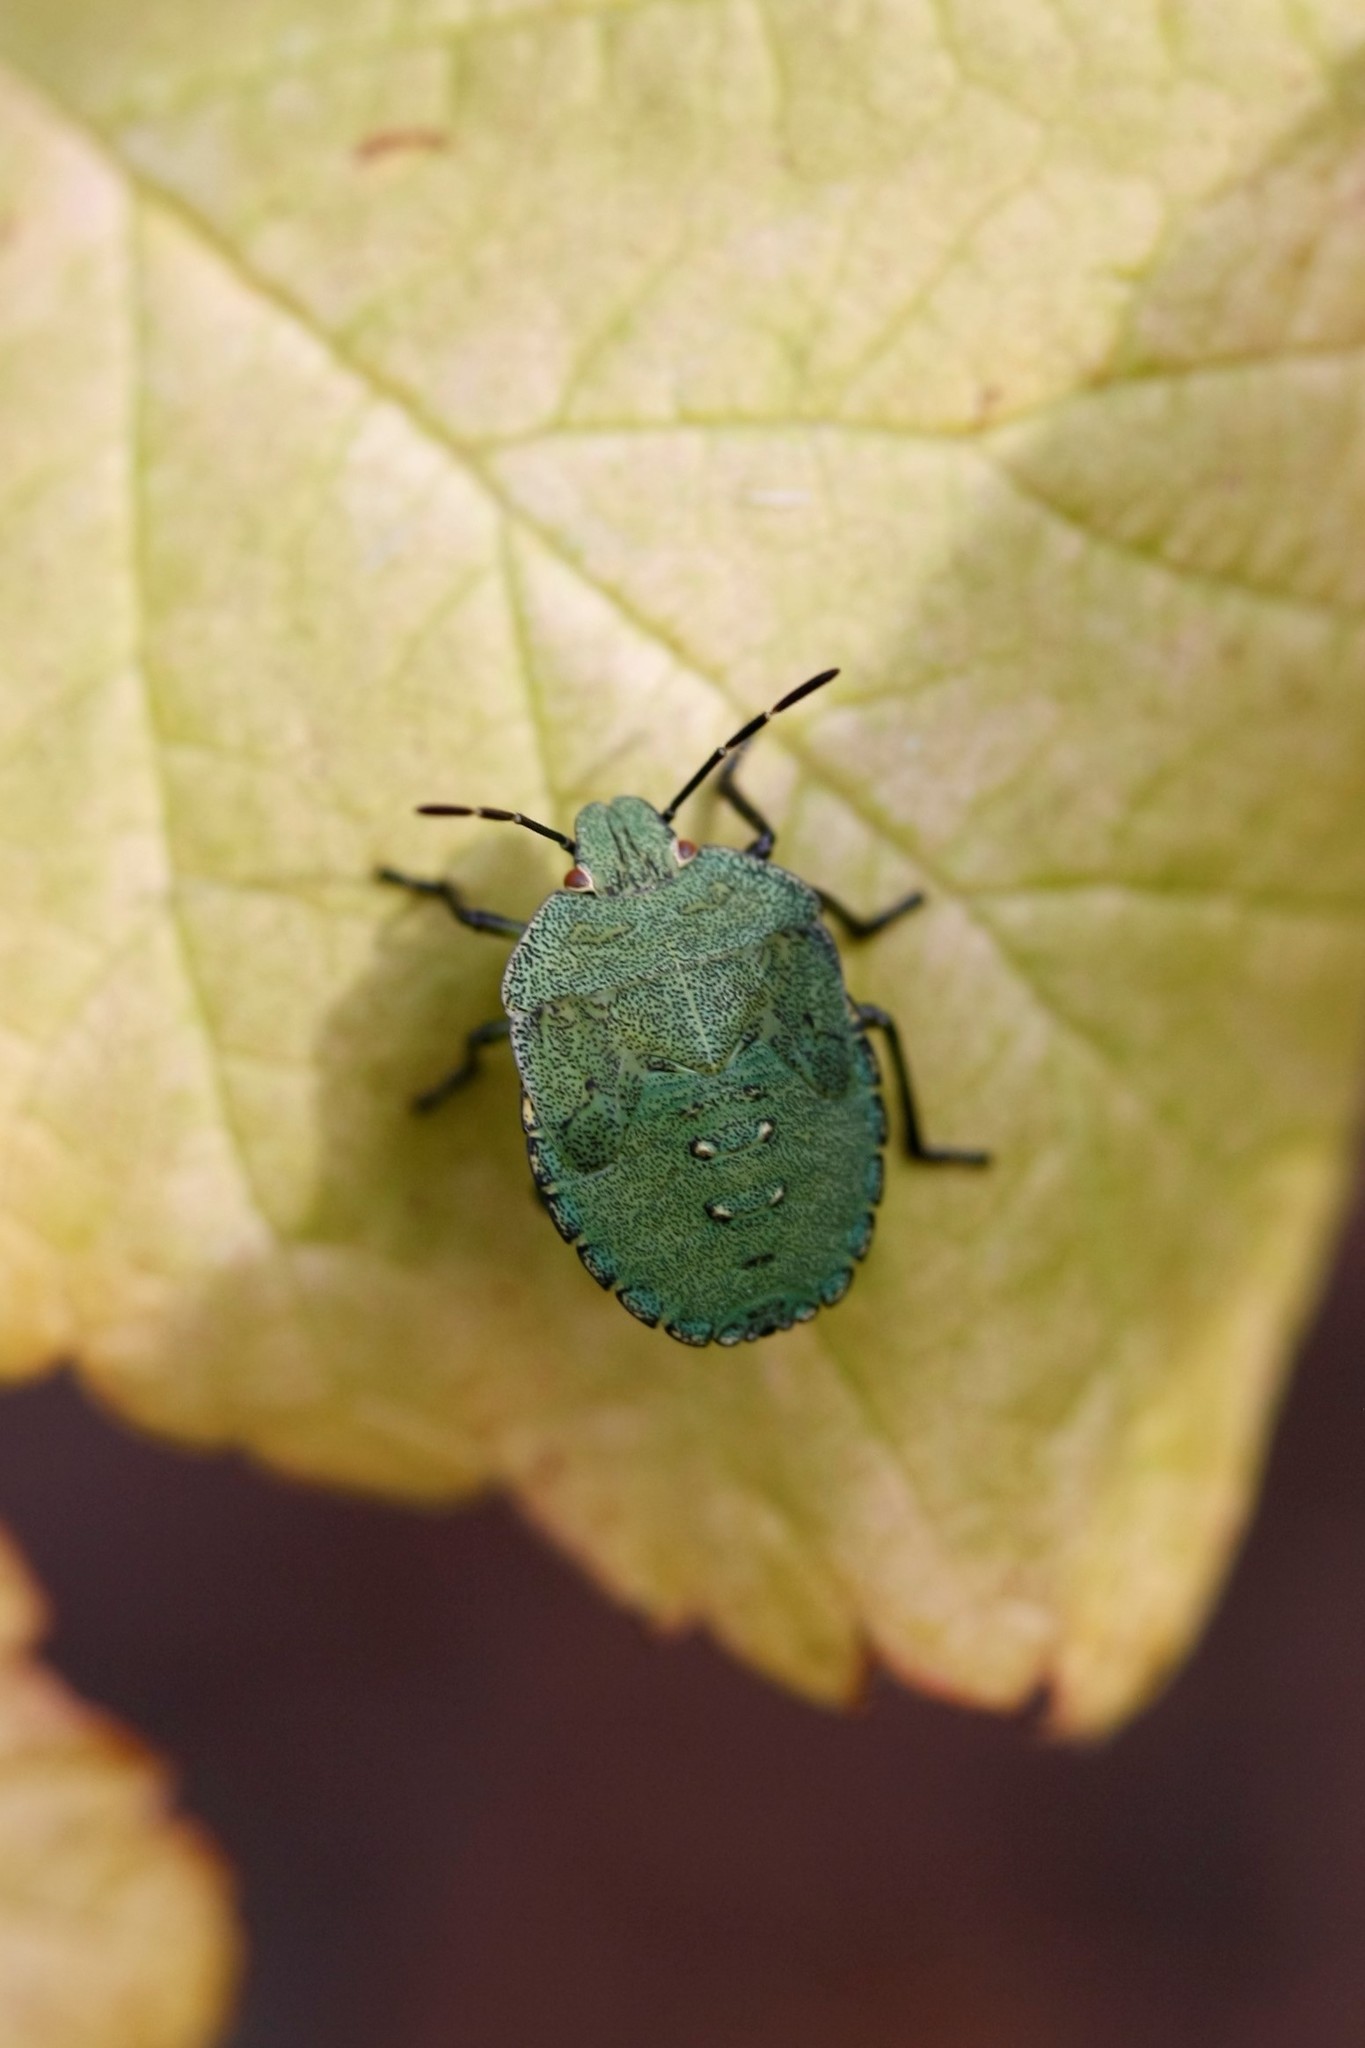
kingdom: Animalia
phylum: Arthropoda
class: Insecta
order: Hemiptera
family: Pentatomidae
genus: Palomena
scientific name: Palomena prasina
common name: Green shieldbug
